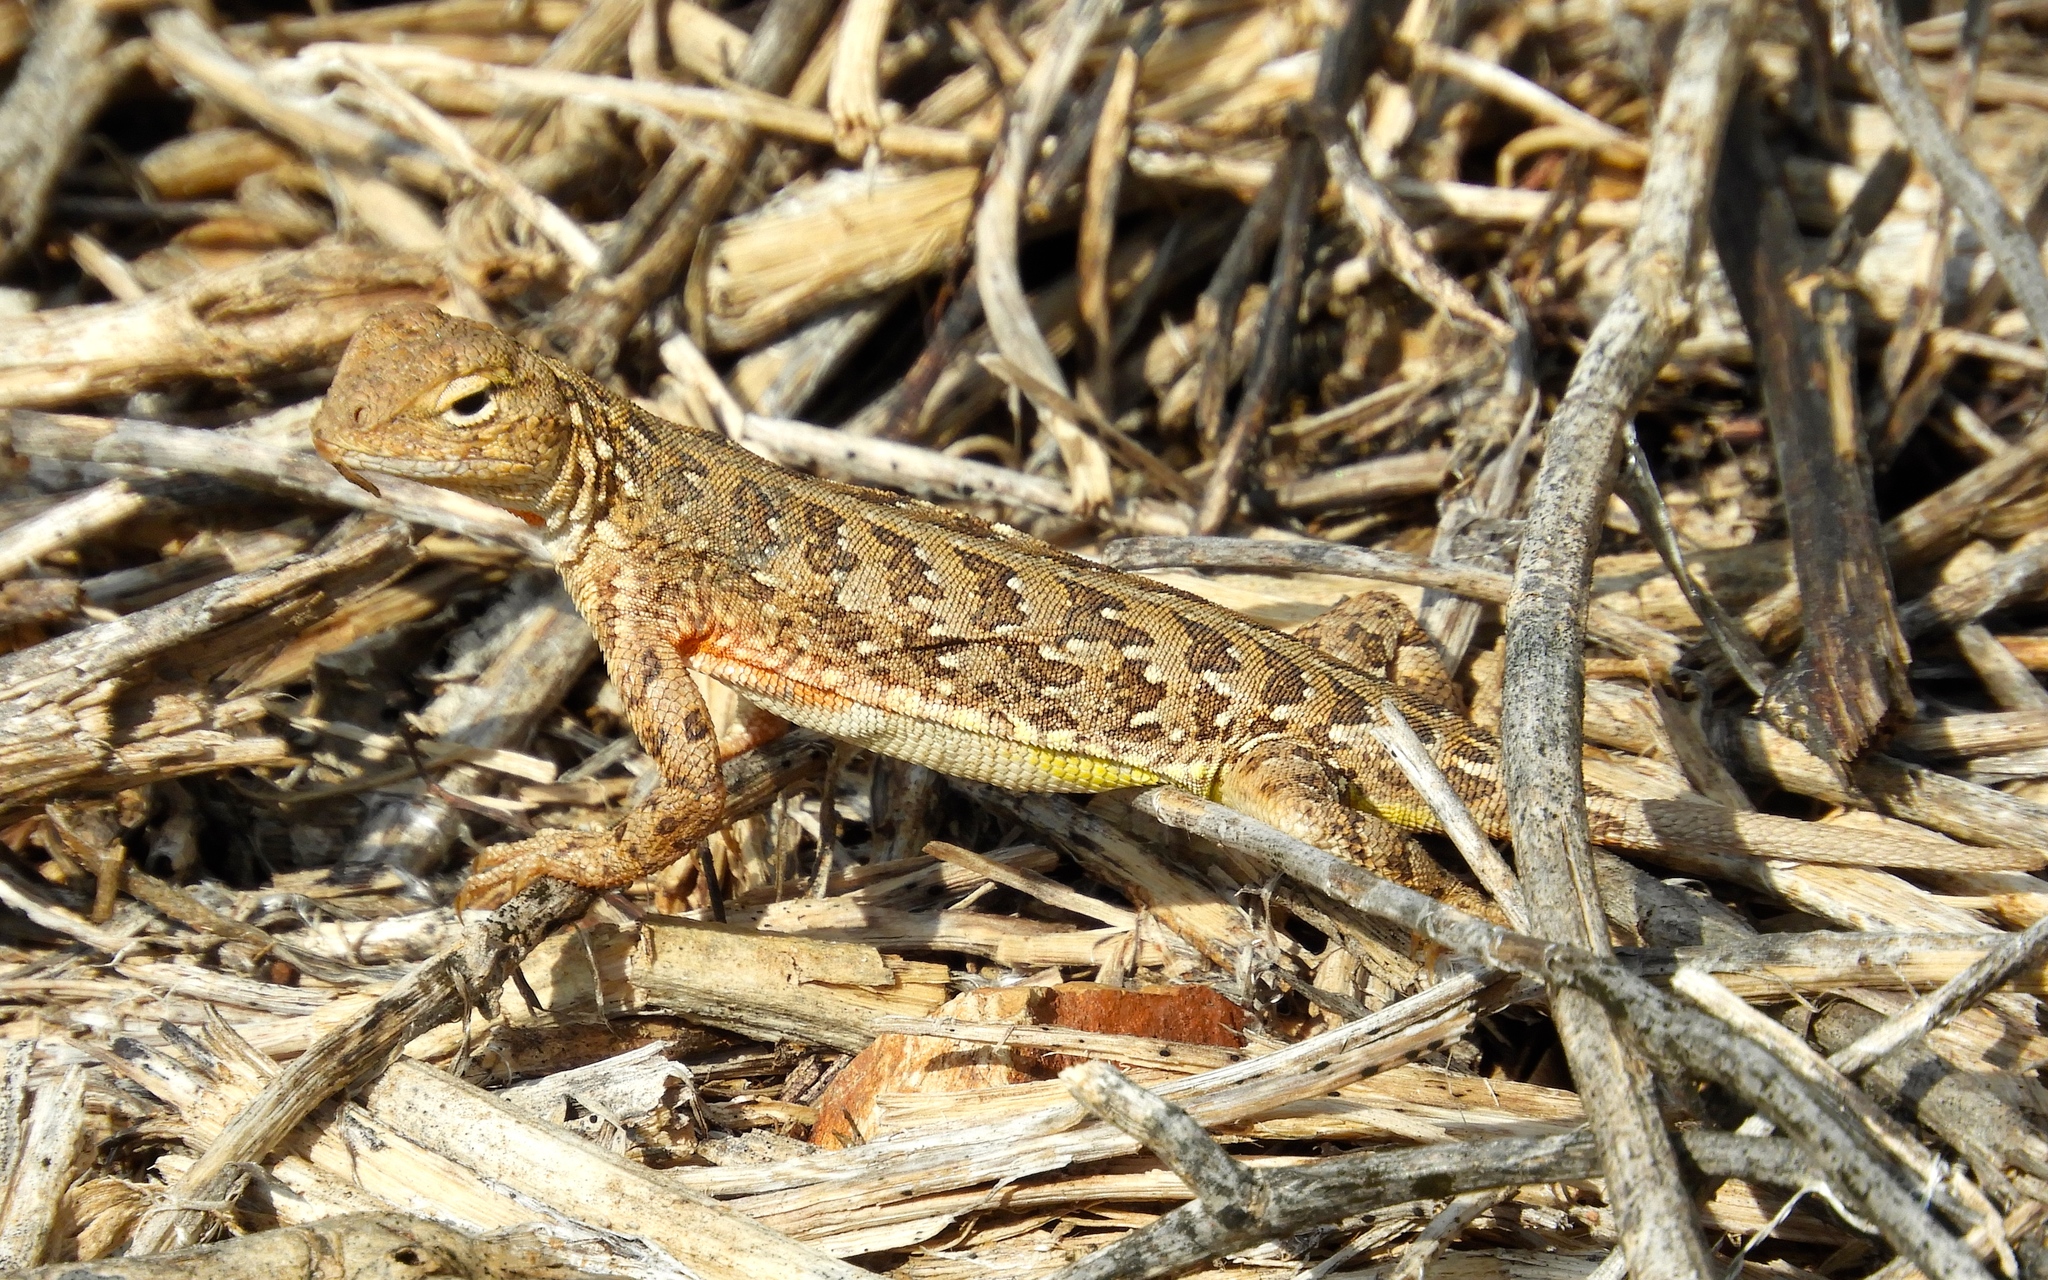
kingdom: Animalia
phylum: Chordata
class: Squamata
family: Phrynosomatidae
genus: Holbrookia
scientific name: Holbrookia elegans
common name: Elegant earless lizard
